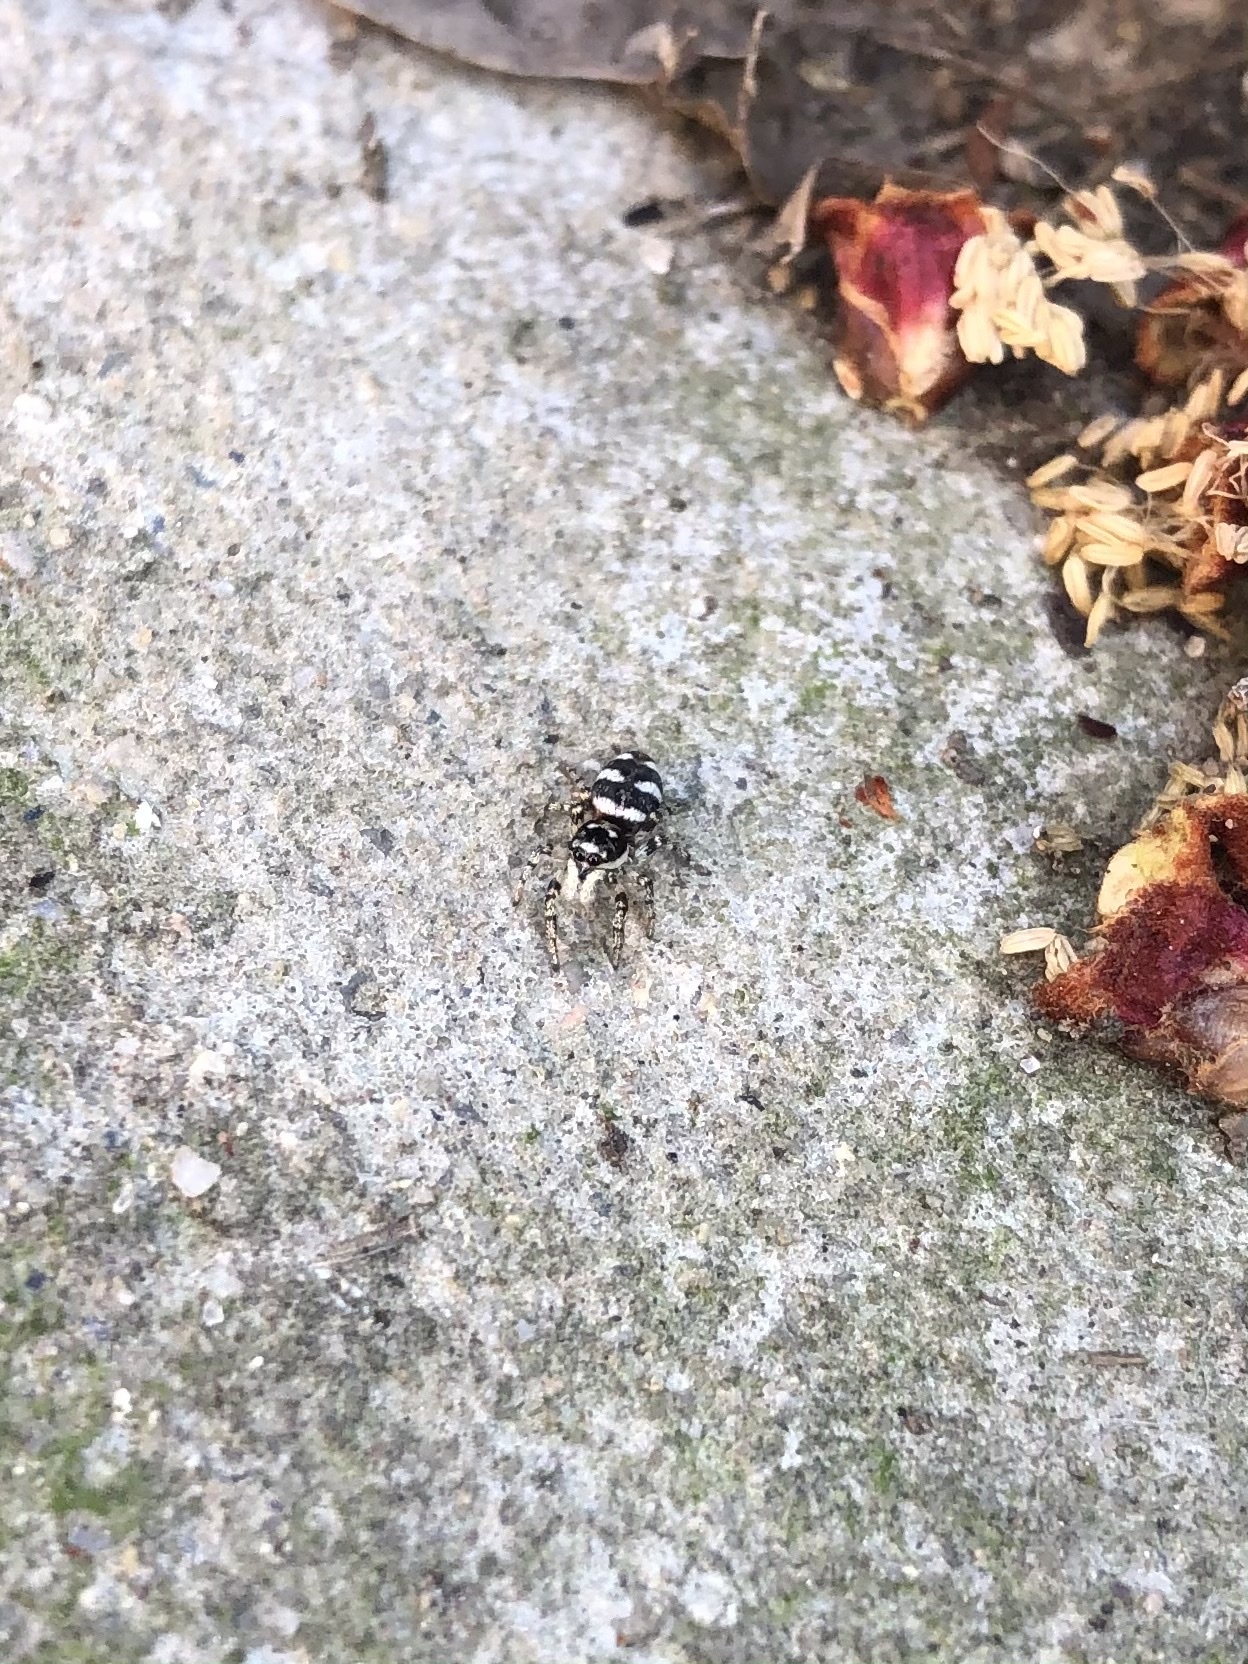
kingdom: Animalia
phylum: Arthropoda
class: Arachnida
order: Araneae
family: Salticidae
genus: Salticus
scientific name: Salticus scenicus
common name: Zebra jumper
